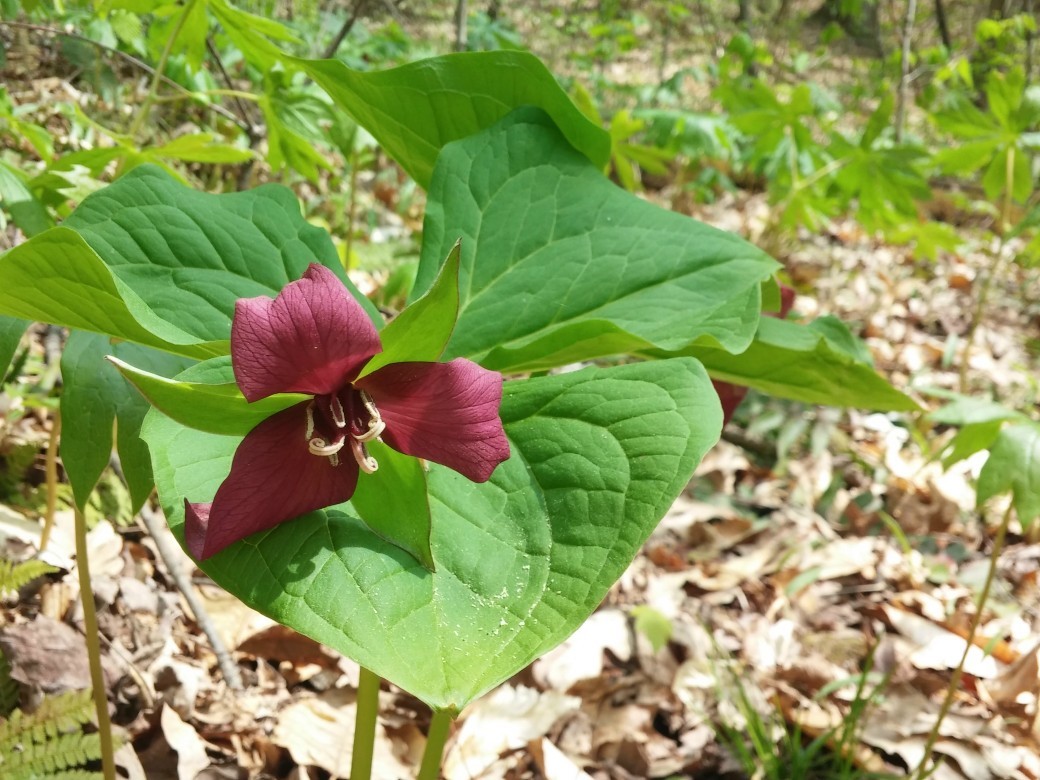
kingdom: Plantae
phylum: Tracheophyta
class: Liliopsida
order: Liliales
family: Melanthiaceae
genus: Trillium
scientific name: Trillium erectum
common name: Purple trillium
